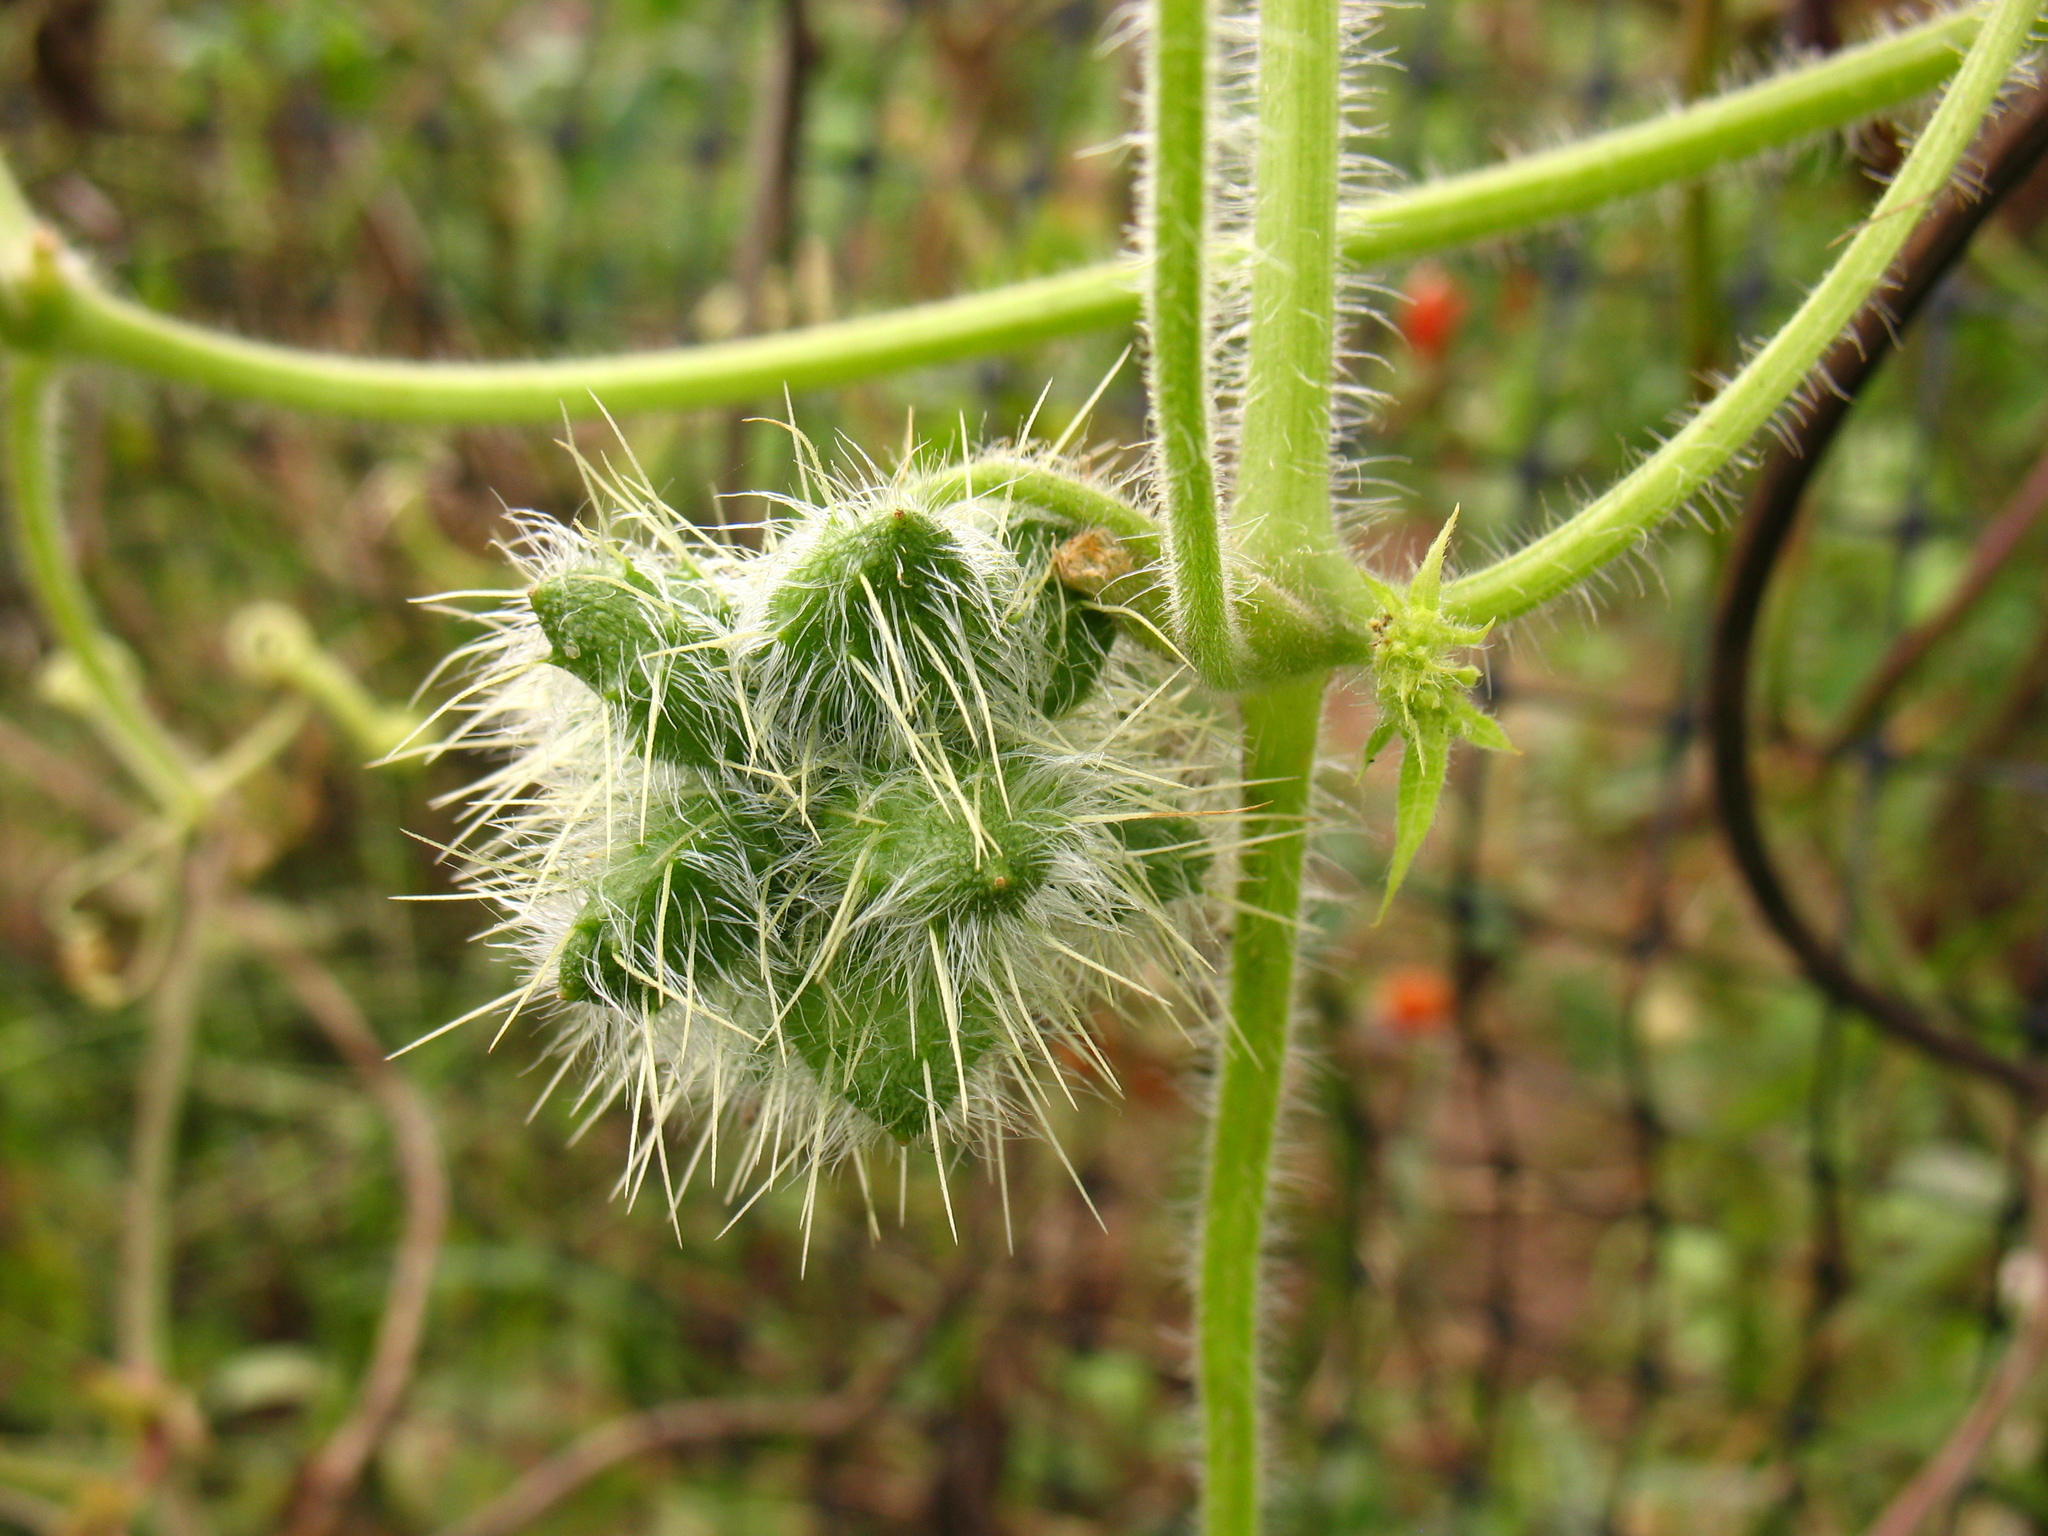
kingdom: Plantae
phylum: Tracheophyta
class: Magnoliopsida
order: Cucurbitales
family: Cucurbitaceae
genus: Sicyos
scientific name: Sicyos angulatus
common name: Angled burr cucumber
